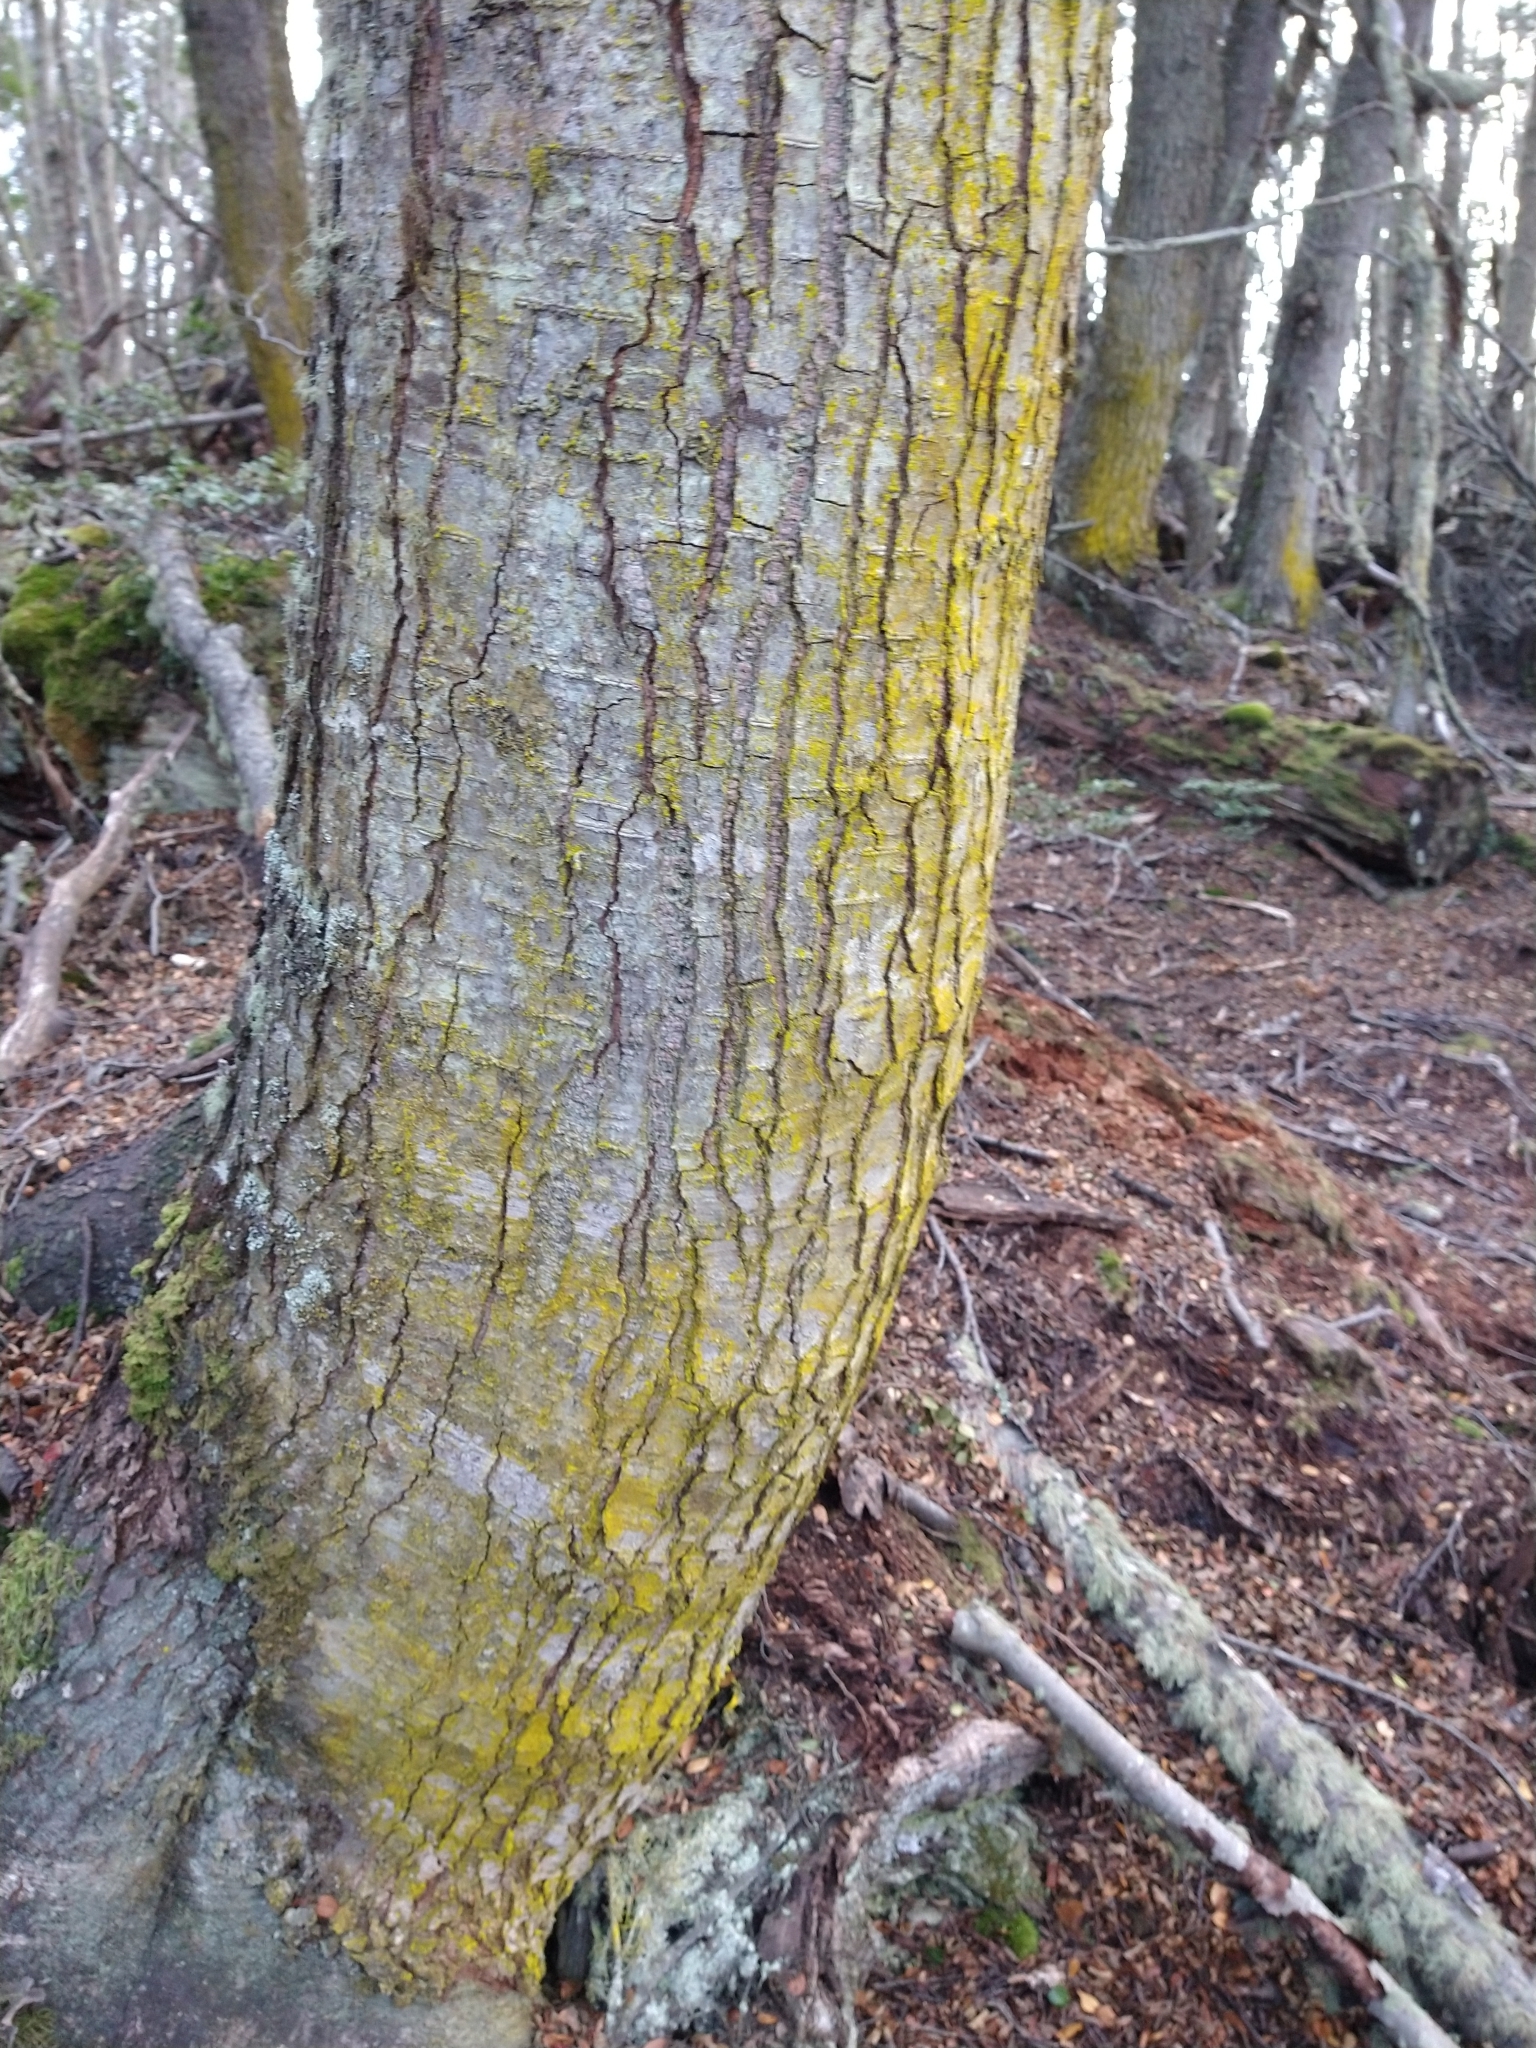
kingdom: Fungi
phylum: Ascomycota
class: Arthoniomycetes
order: Arthoniales
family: Chrysotrichaceae
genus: Chrysothrix
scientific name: Chrysothrix candelaris
